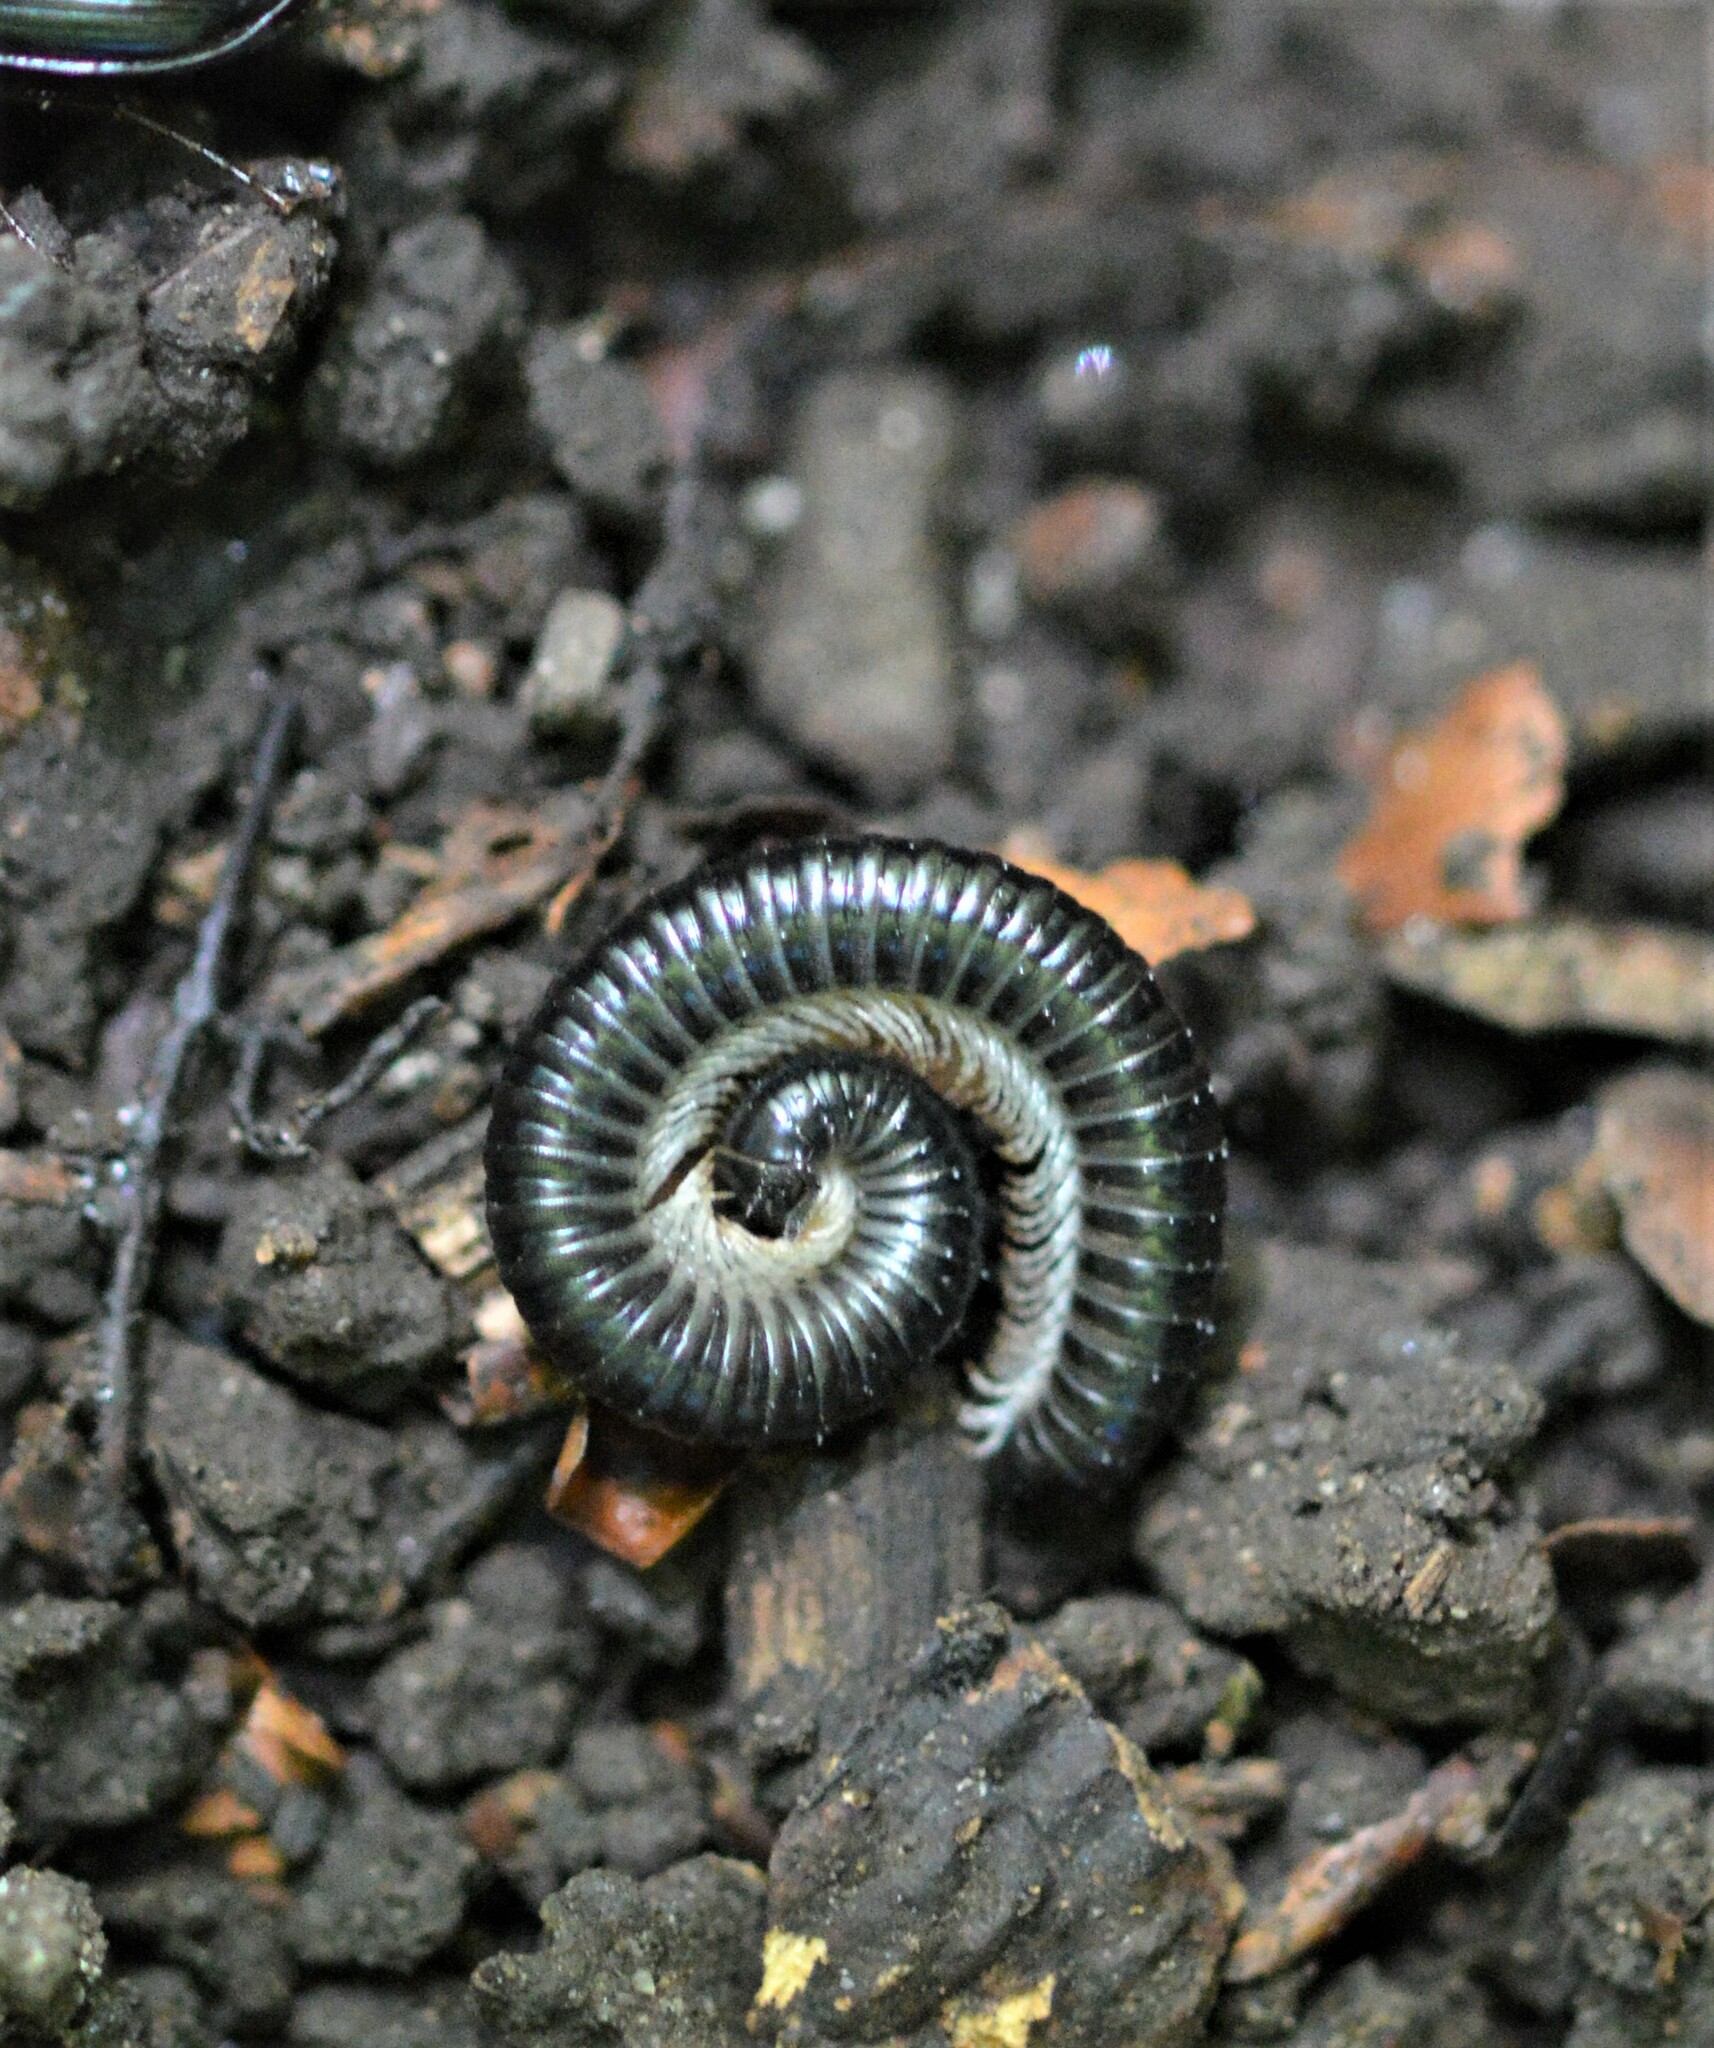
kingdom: Animalia
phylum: Arthropoda
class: Diplopoda
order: Julida
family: Julidae
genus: Tachypodoiulus
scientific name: Tachypodoiulus niger
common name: White-legged snake millipede
